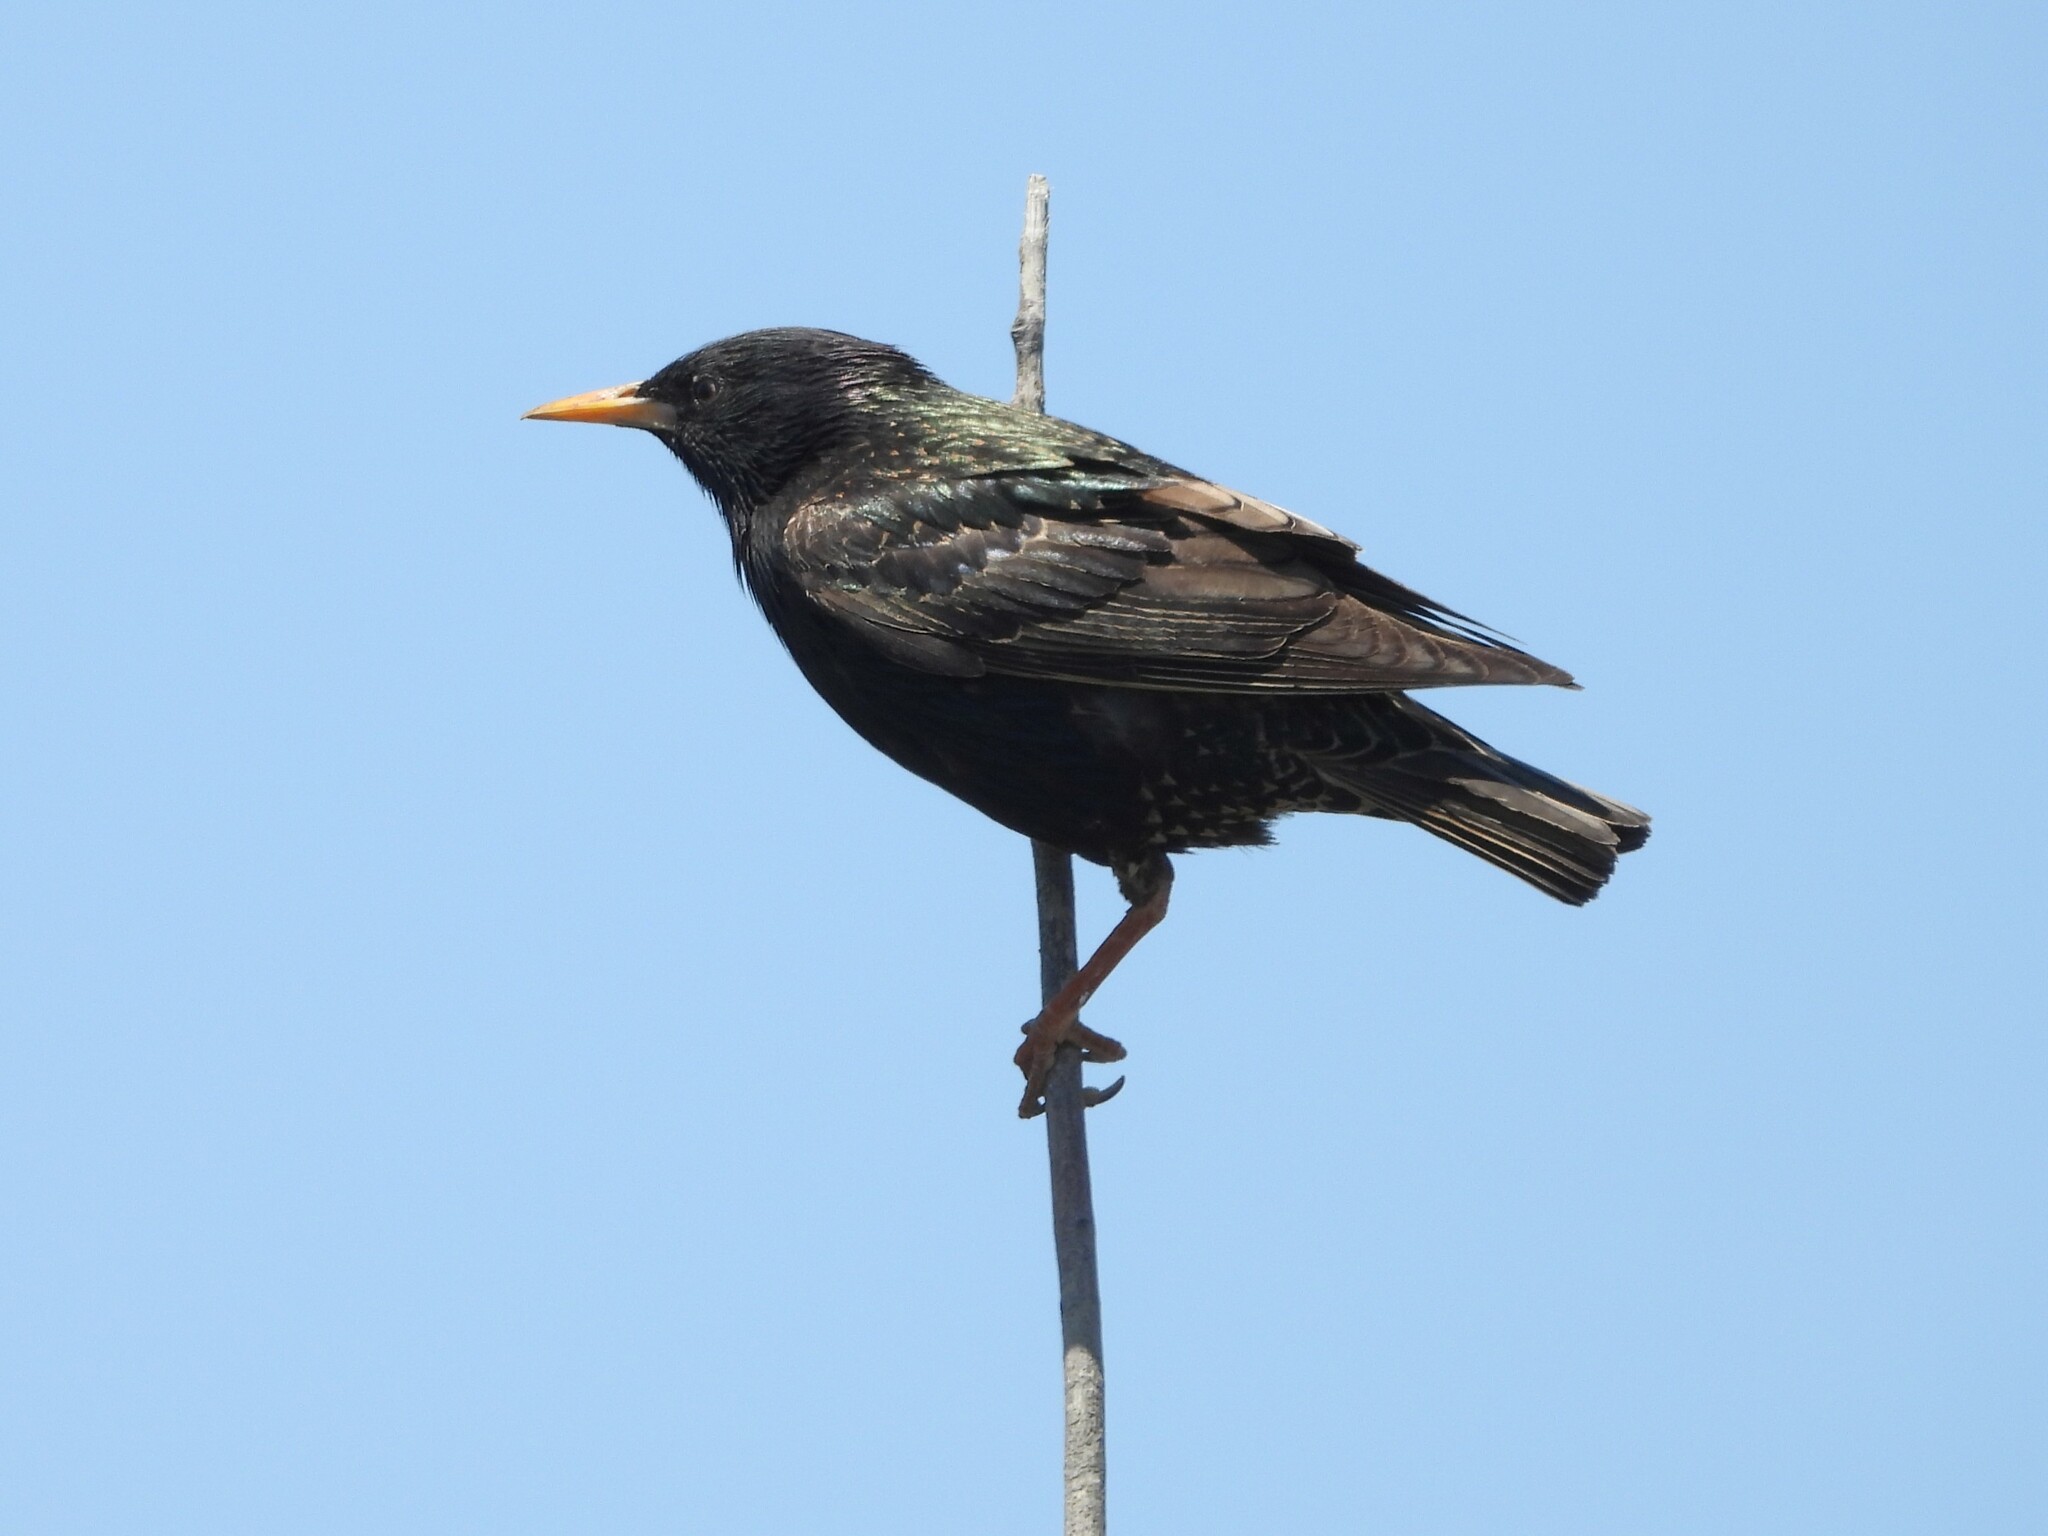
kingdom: Animalia
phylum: Chordata
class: Aves
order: Passeriformes
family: Sturnidae
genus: Sturnus
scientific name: Sturnus vulgaris
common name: Common starling
